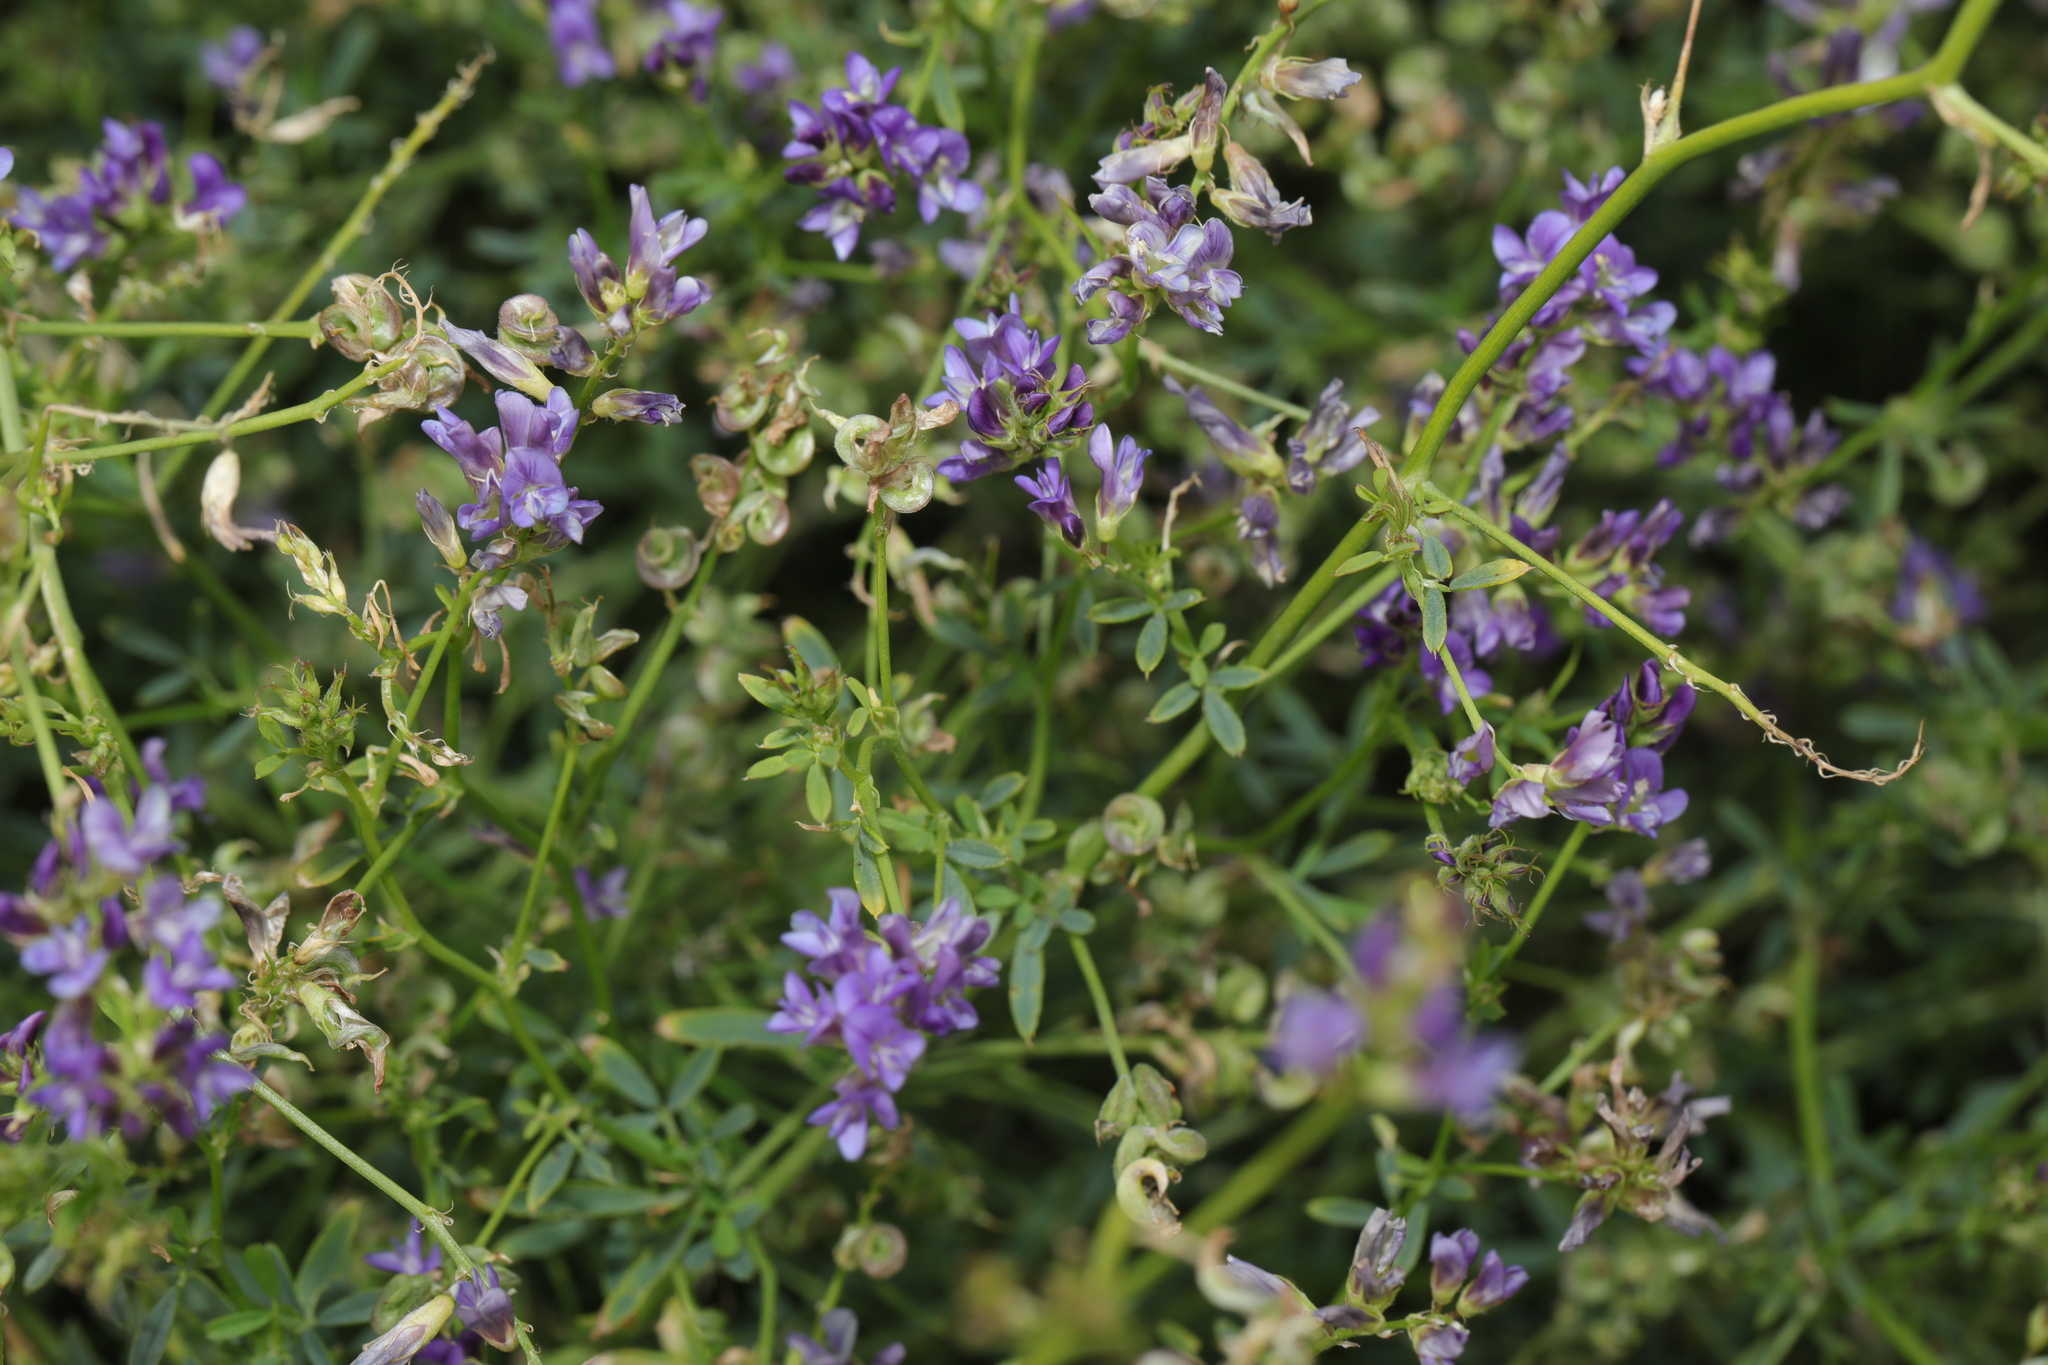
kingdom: Plantae
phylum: Tracheophyta
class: Magnoliopsida
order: Fabales
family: Fabaceae
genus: Medicago
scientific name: Medicago sativa
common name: Alfalfa
